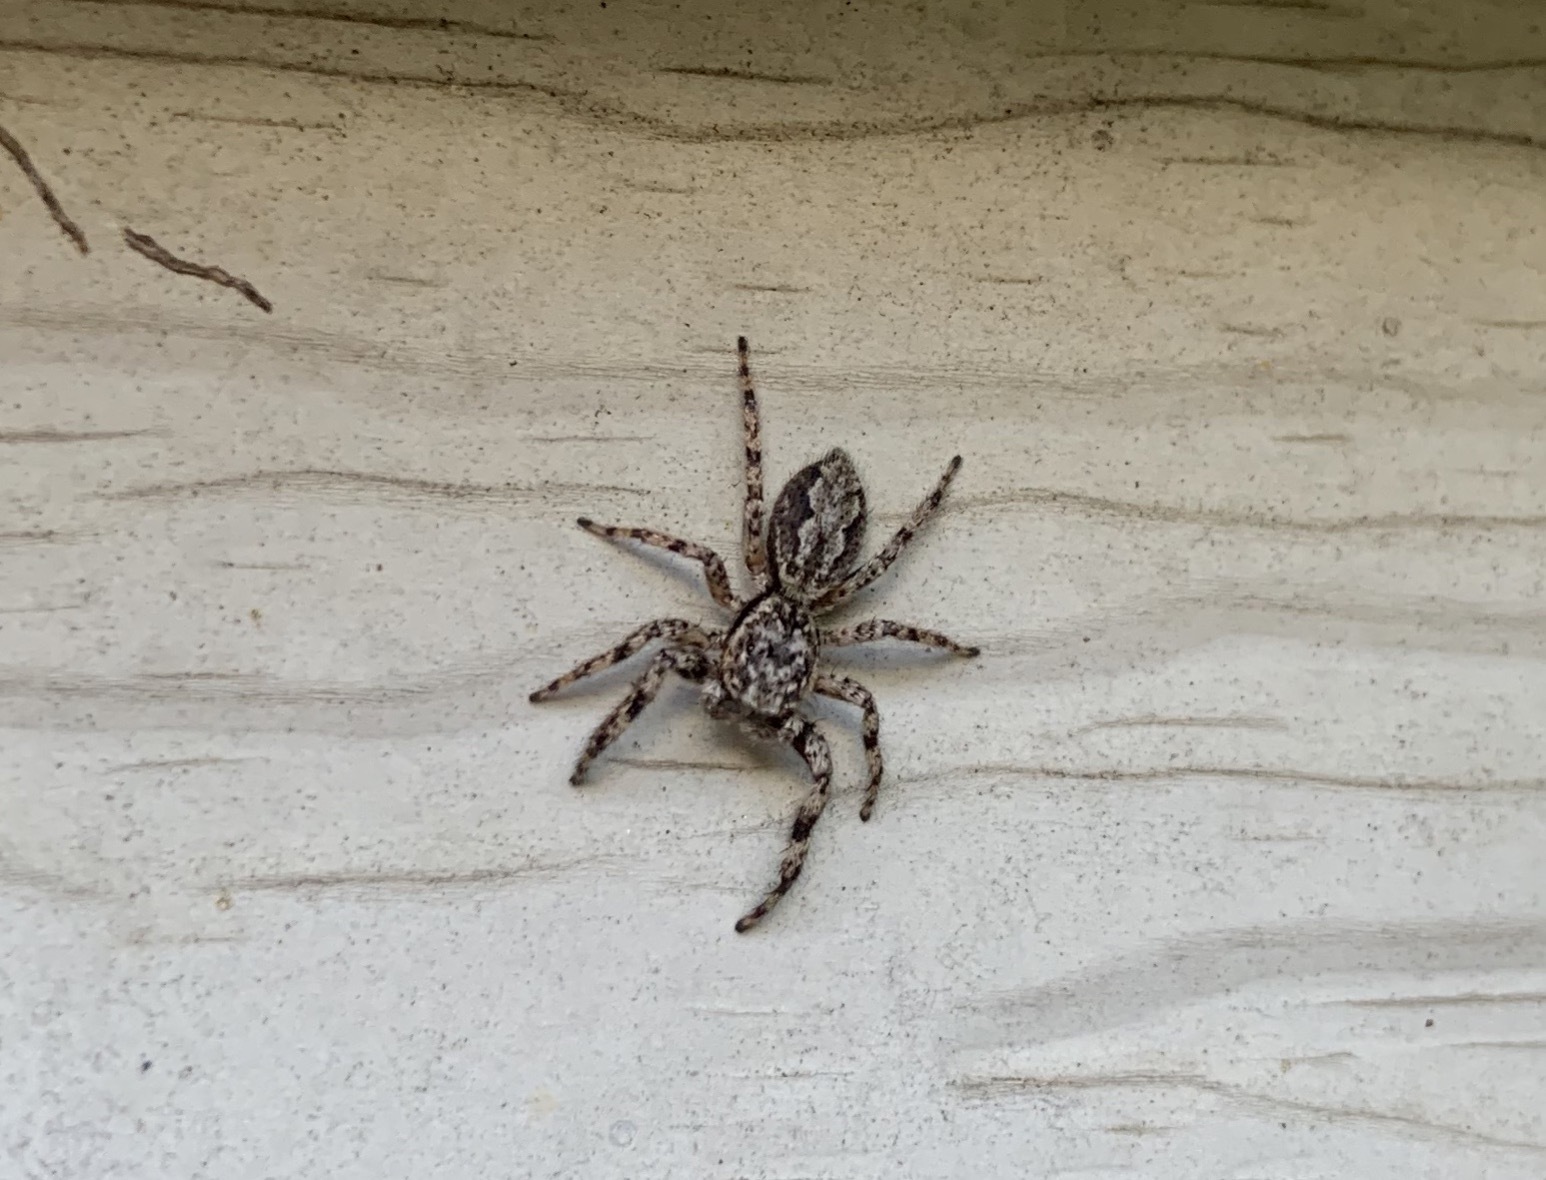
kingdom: Animalia
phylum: Arthropoda
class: Arachnida
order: Araneae
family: Salticidae
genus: Platycryptus
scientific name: Platycryptus undatus
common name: Tan jumping spider
